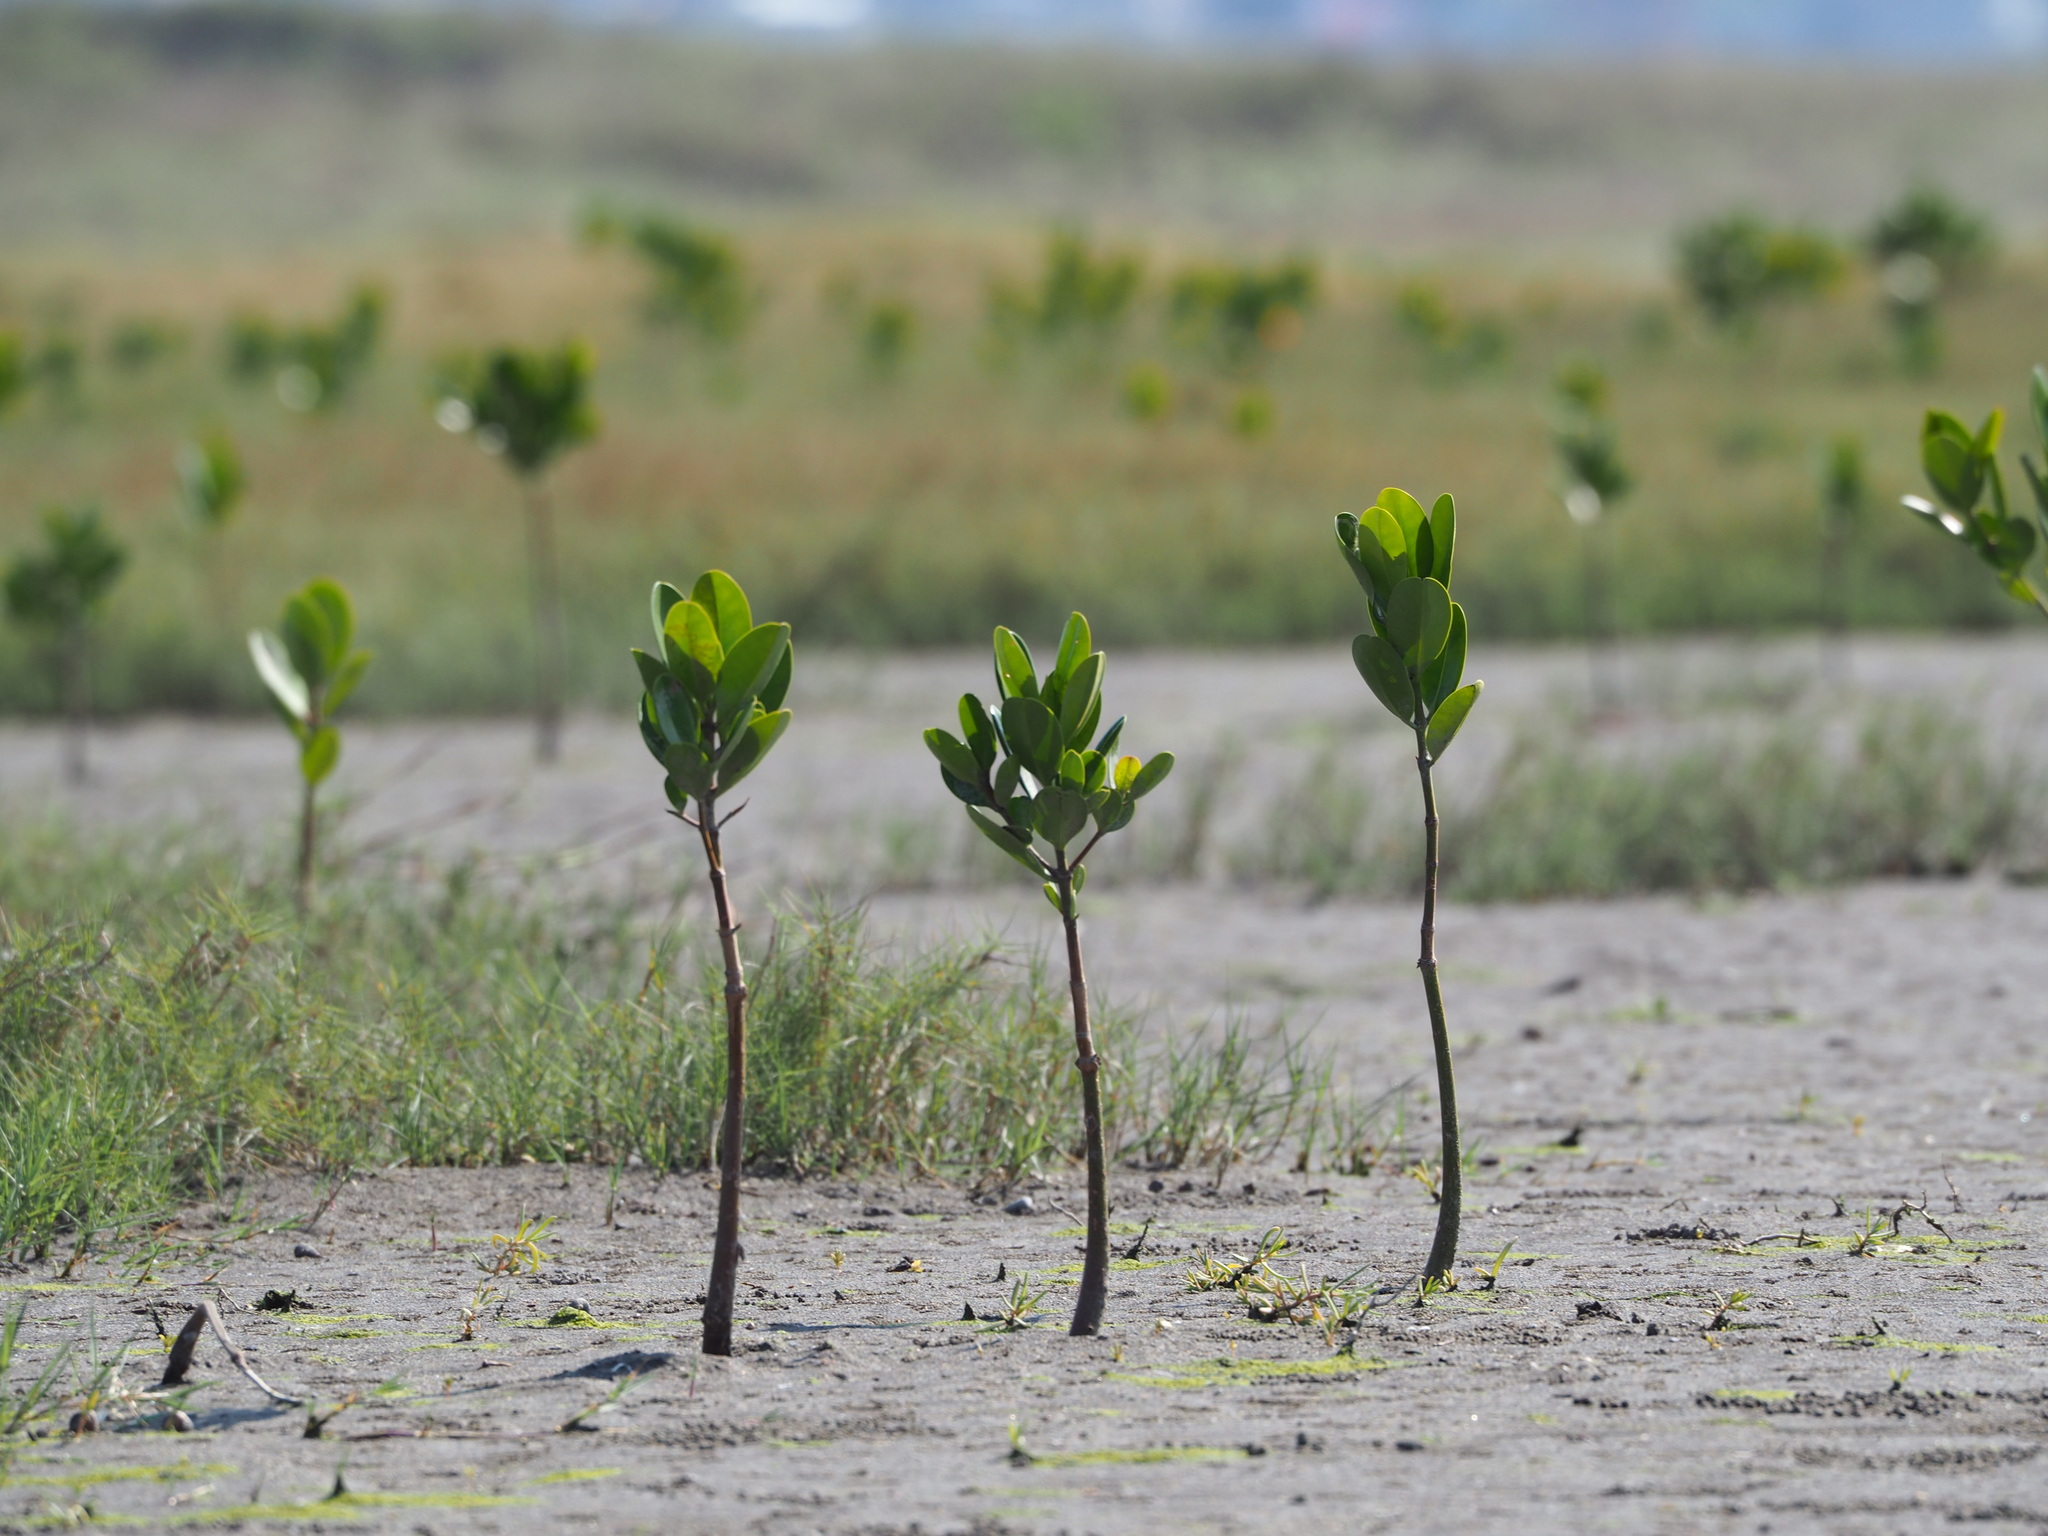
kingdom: Plantae
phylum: Tracheophyta
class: Magnoliopsida
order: Malpighiales
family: Rhizophoraceae
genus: Kandelia
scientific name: Kandelia obovata
